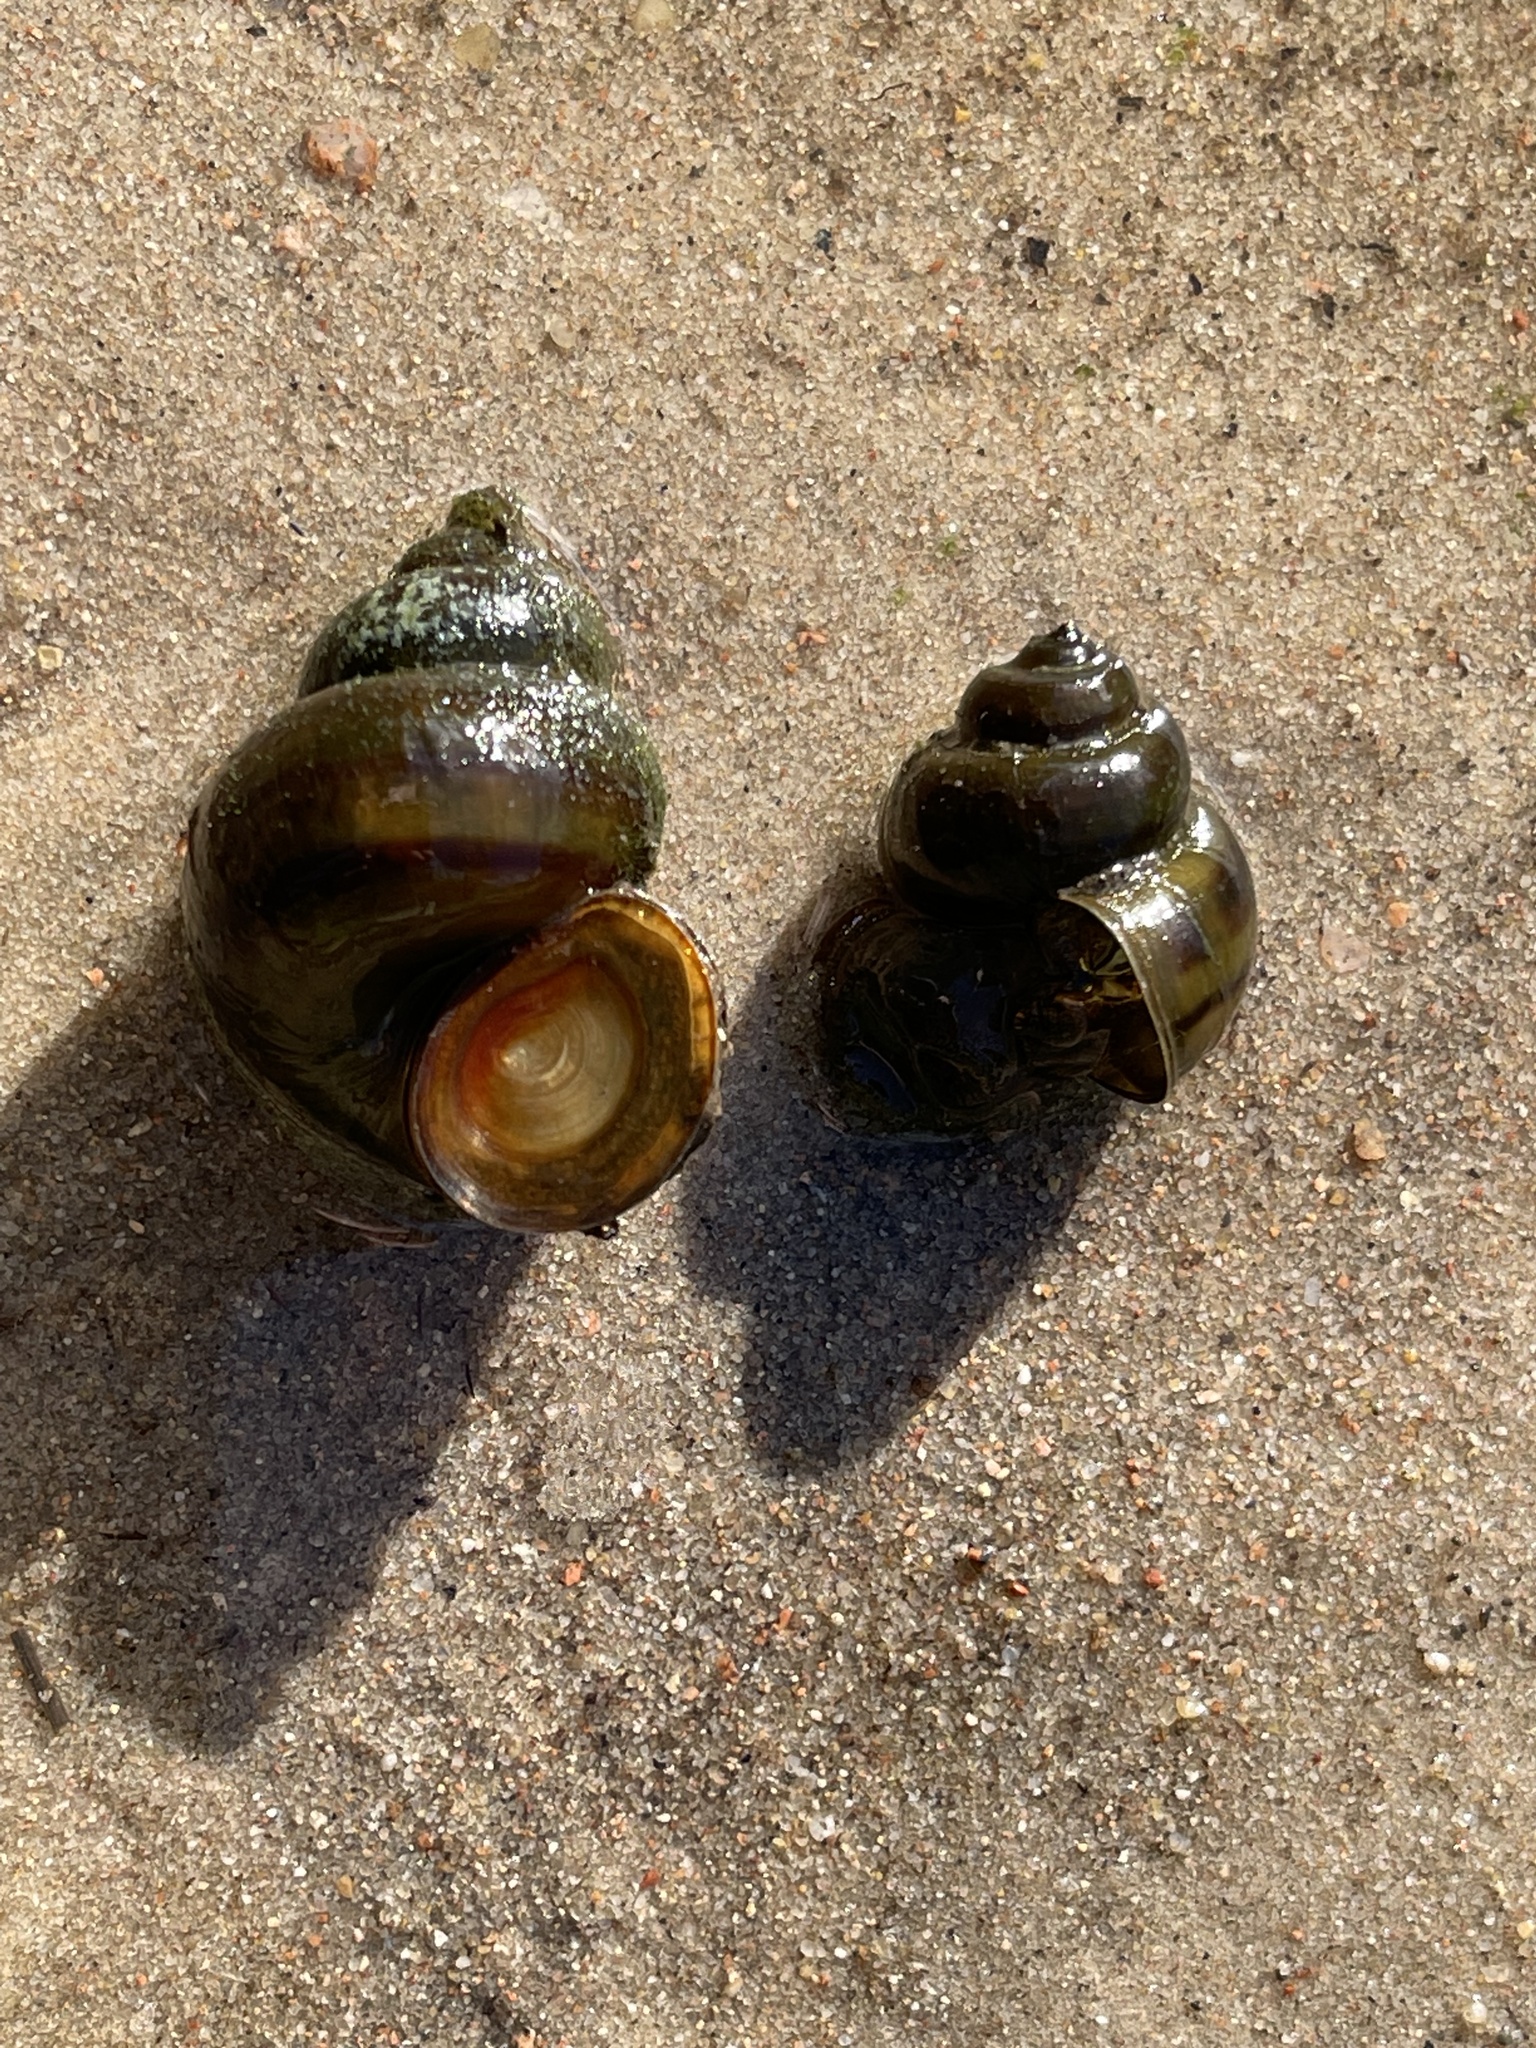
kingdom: Animalia
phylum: Mollusca
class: Gastropoda
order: Architaenioglossa
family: Viviparidae
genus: Viviparus
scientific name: Viviparus contectus
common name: Lister's river snail
